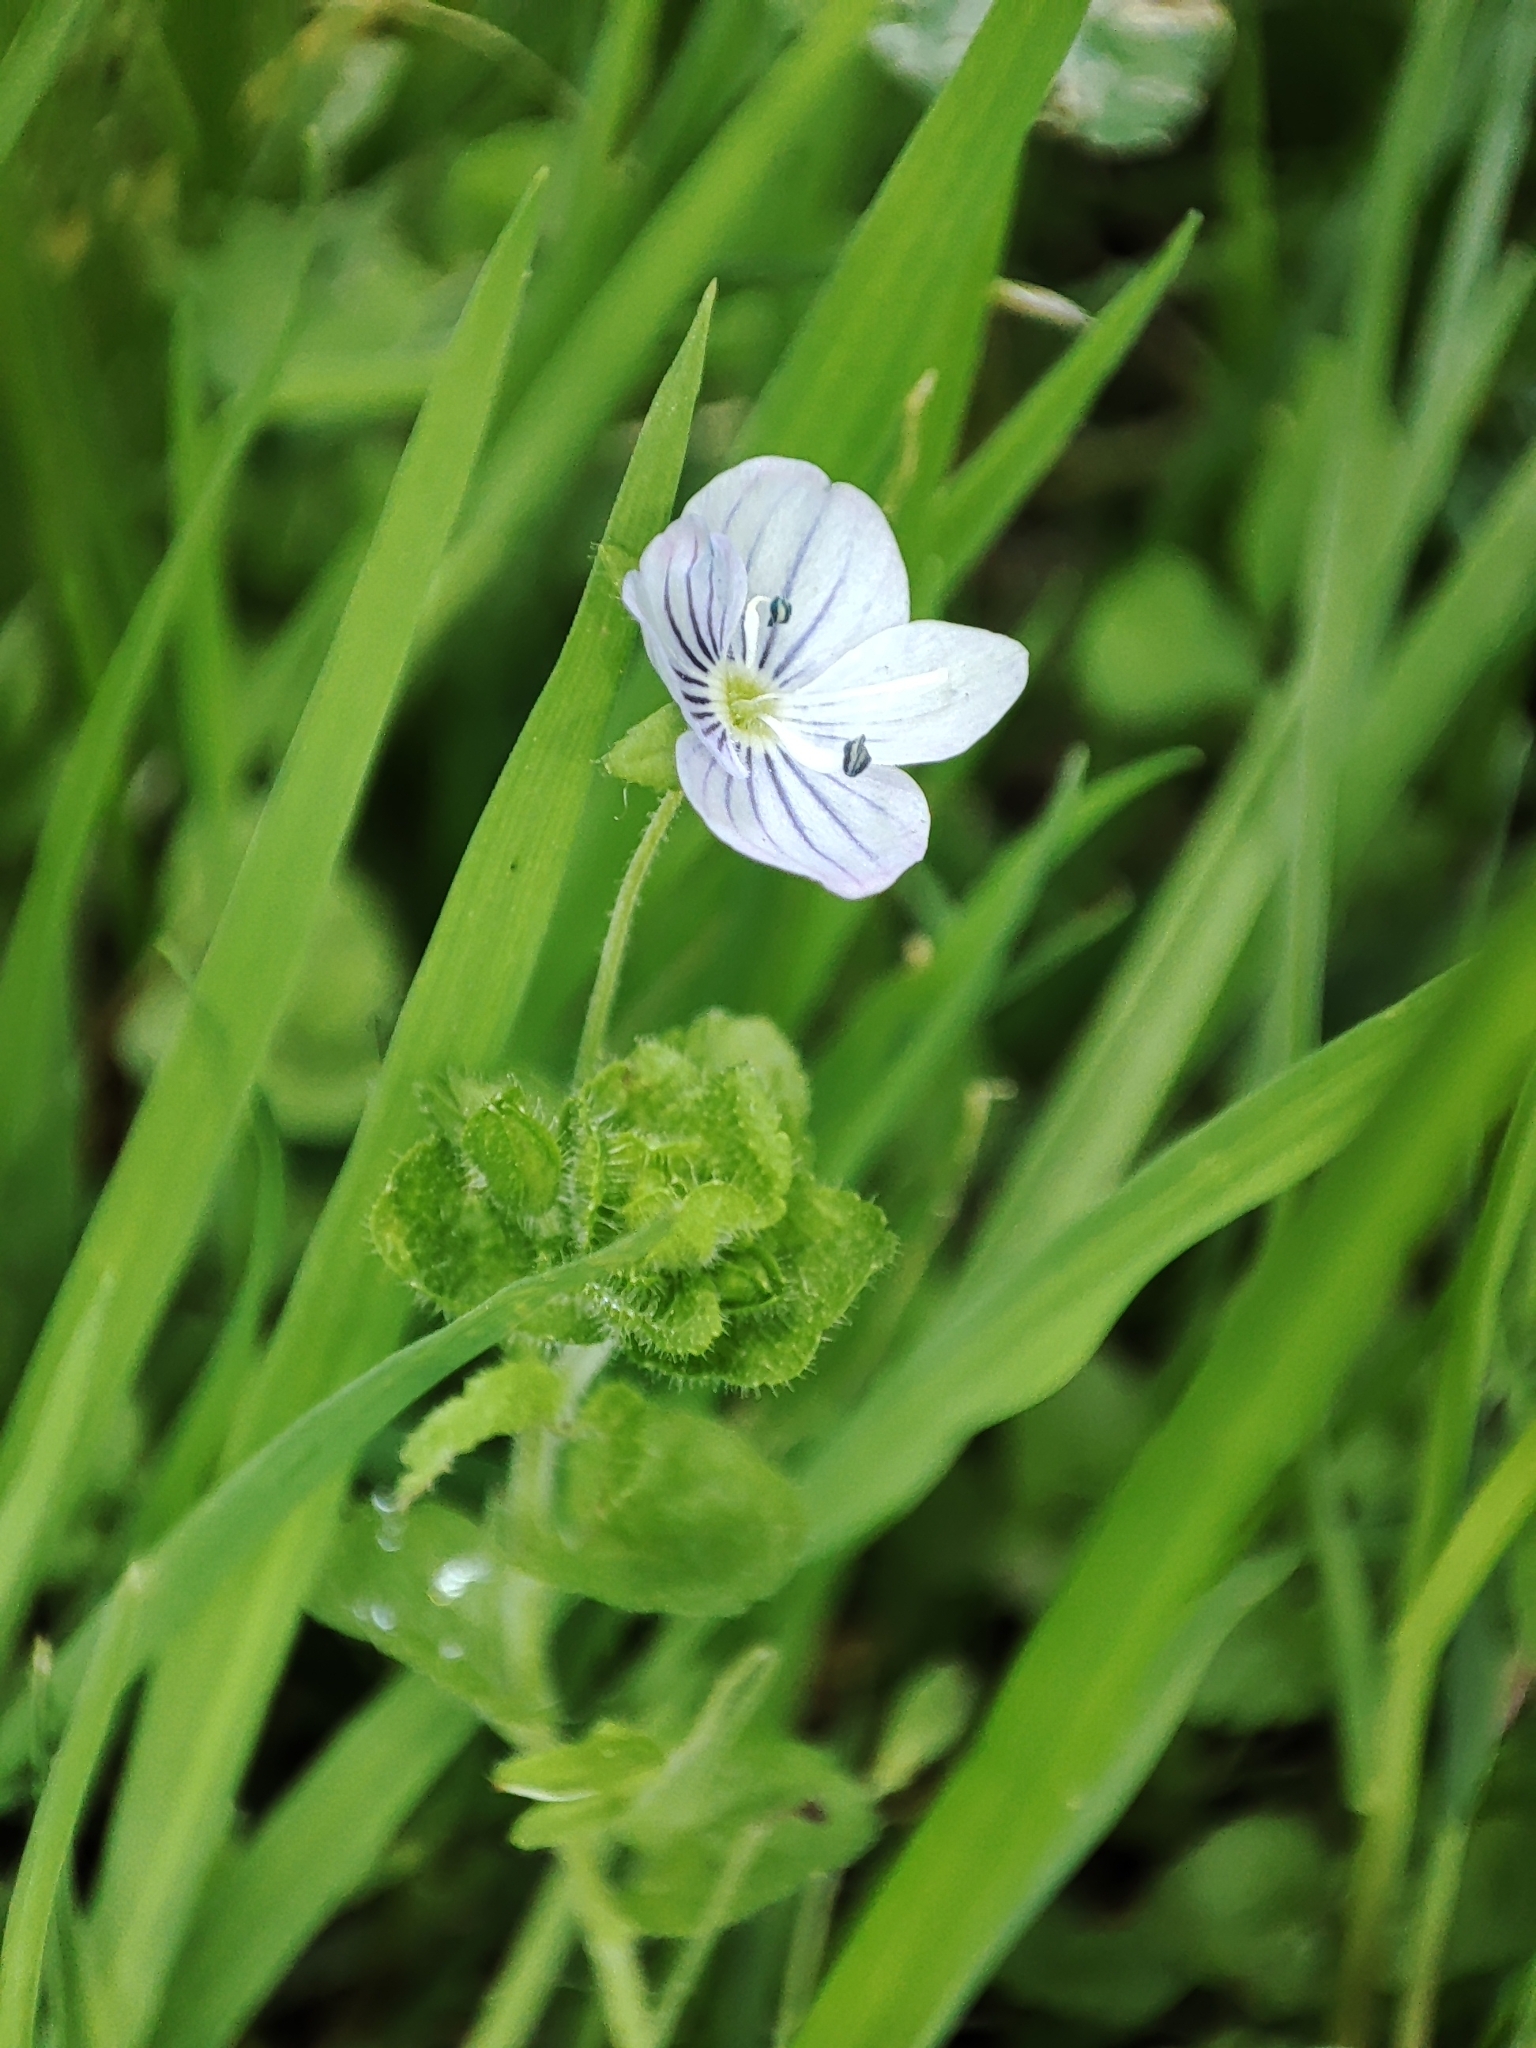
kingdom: Plantae
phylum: Tracheophyta
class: Magnoliopsida
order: Lamiales
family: Plantaginaceae
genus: Veronica
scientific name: Veronica filiformis
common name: Slender speedwell
